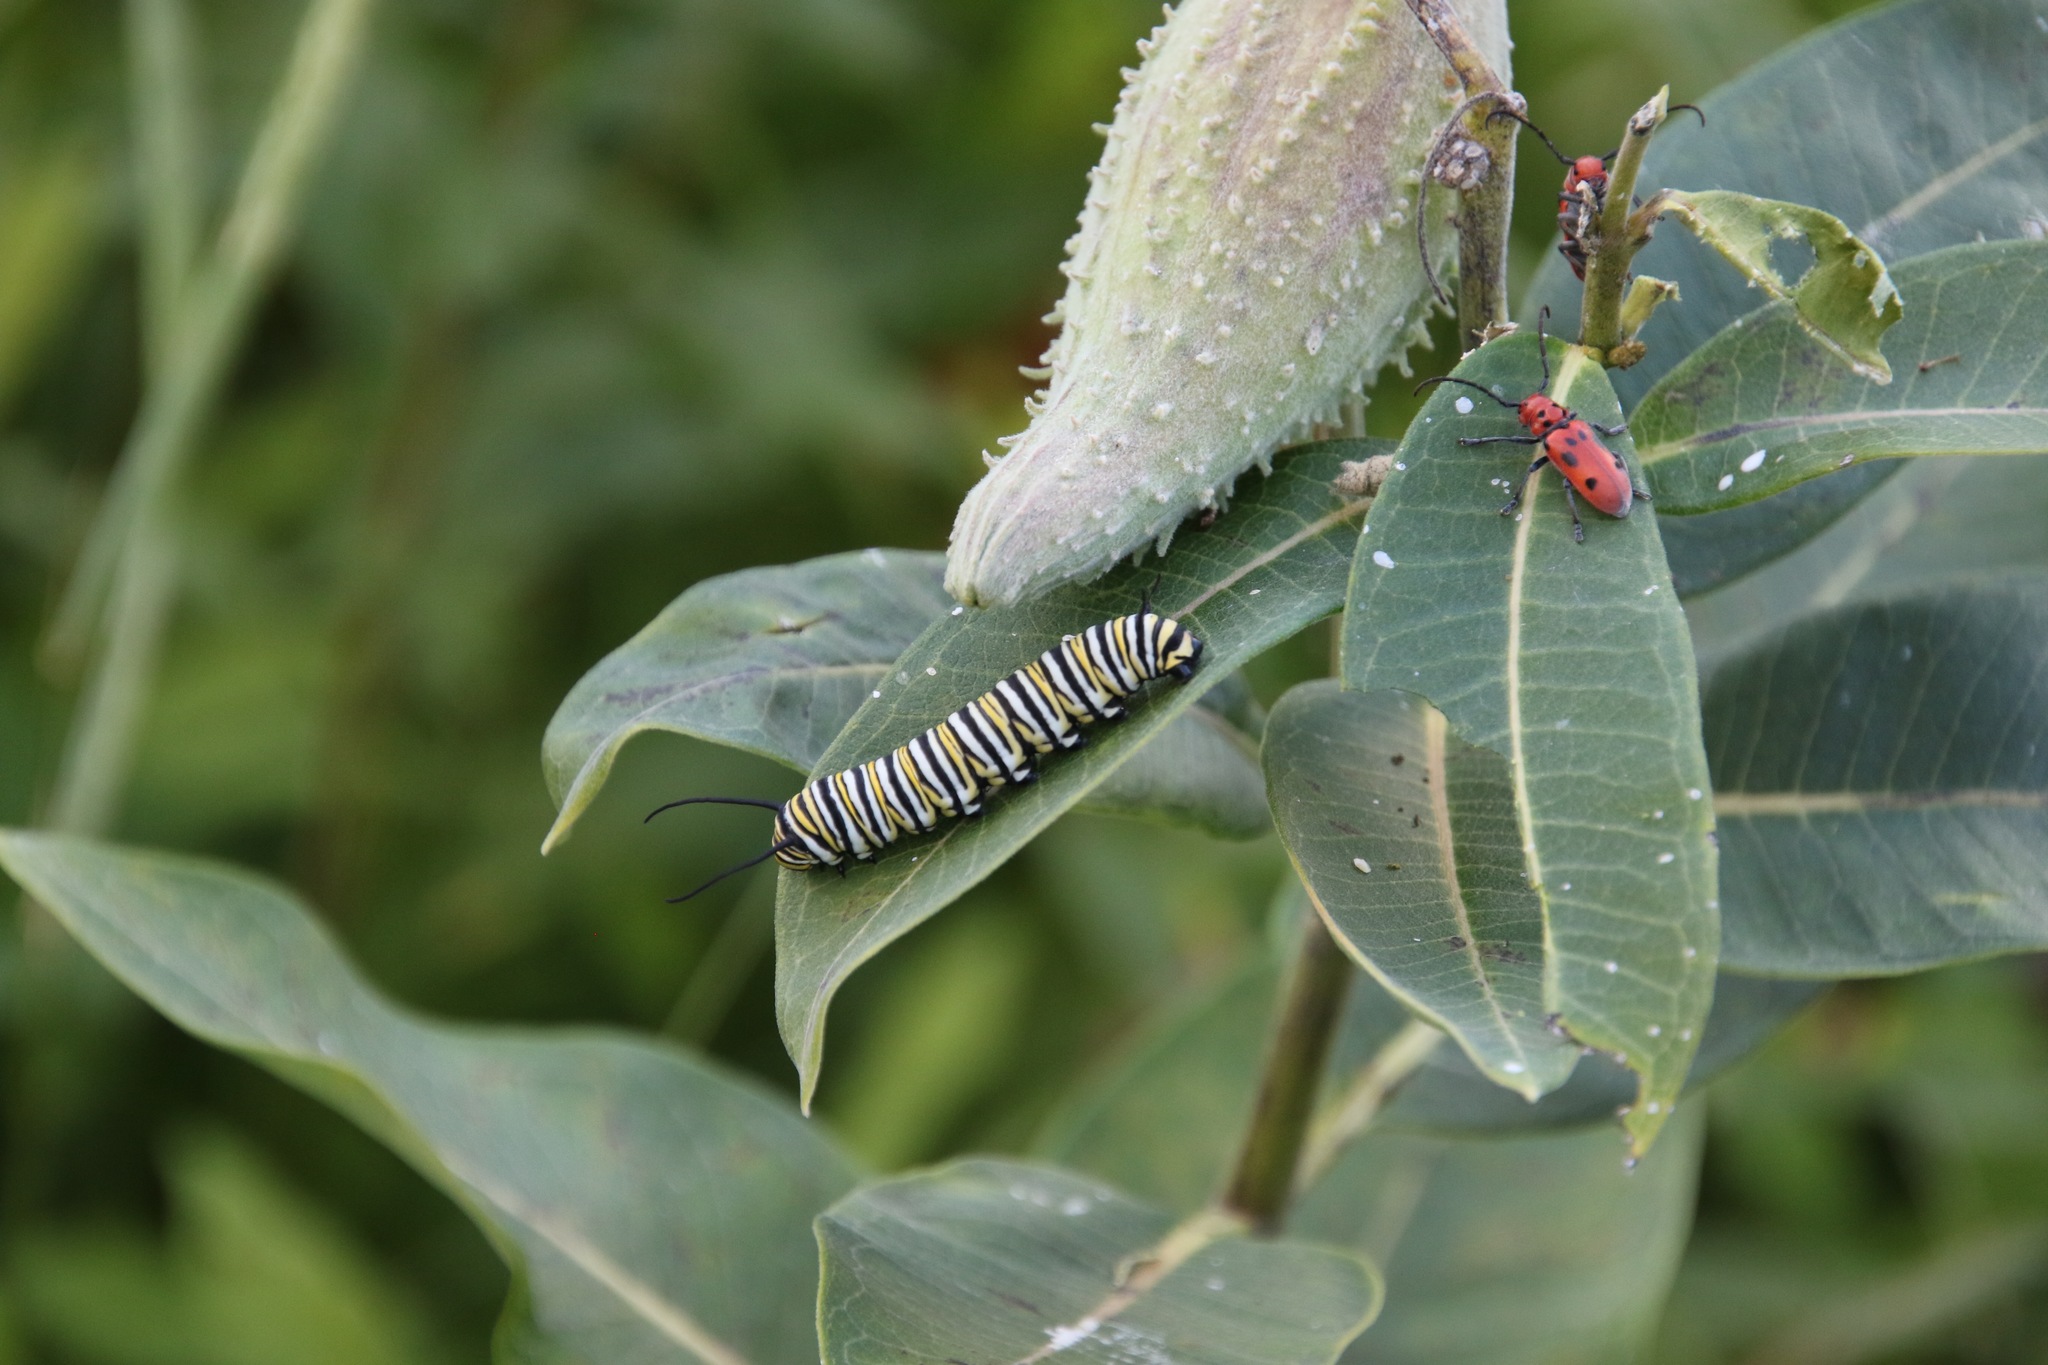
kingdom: Animalia
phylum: Arthropoda
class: Insecta
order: Lepidoptera
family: Nymphalidae
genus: Danaus
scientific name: Danaus plexippus
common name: Monarch
